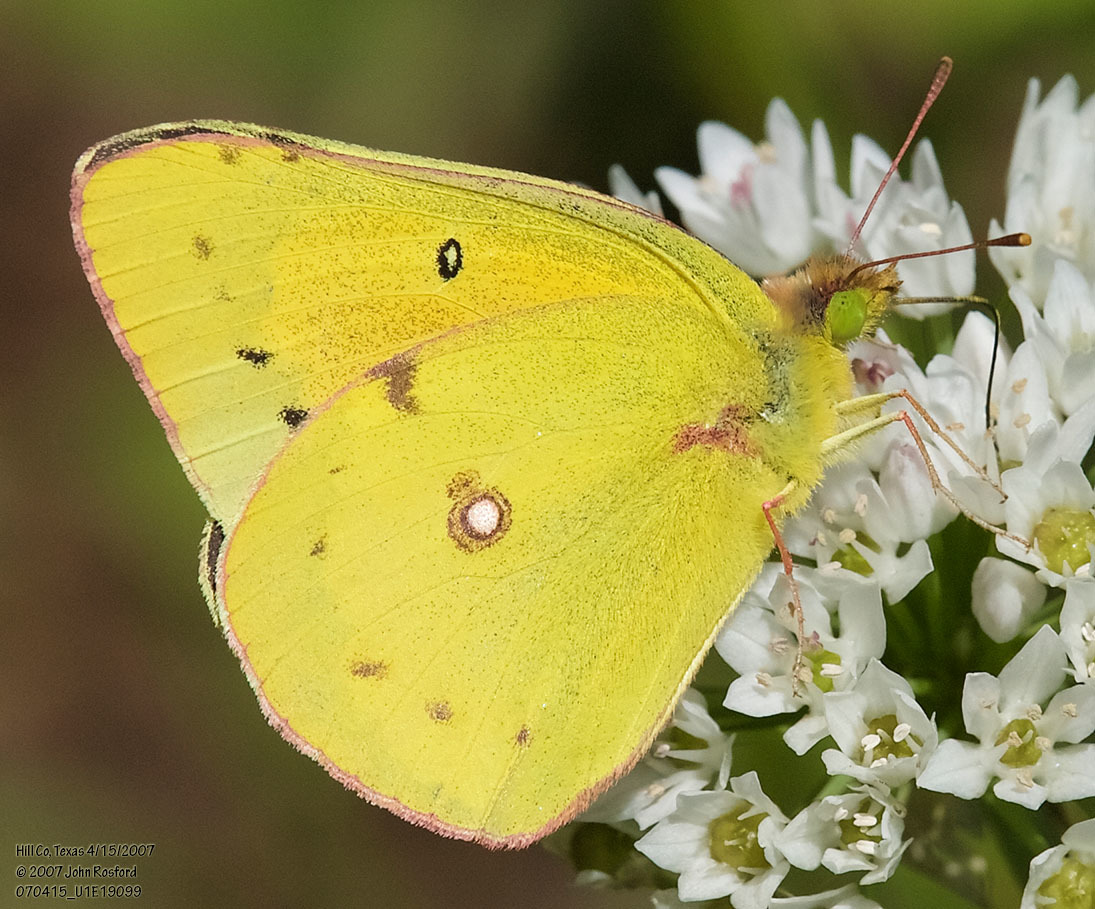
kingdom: Animalia
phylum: Arthropoda
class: Insecta
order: Lepidoptera
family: Pieridae
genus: Colias
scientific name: Colias eurytheme
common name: Alfalfa butterfly
